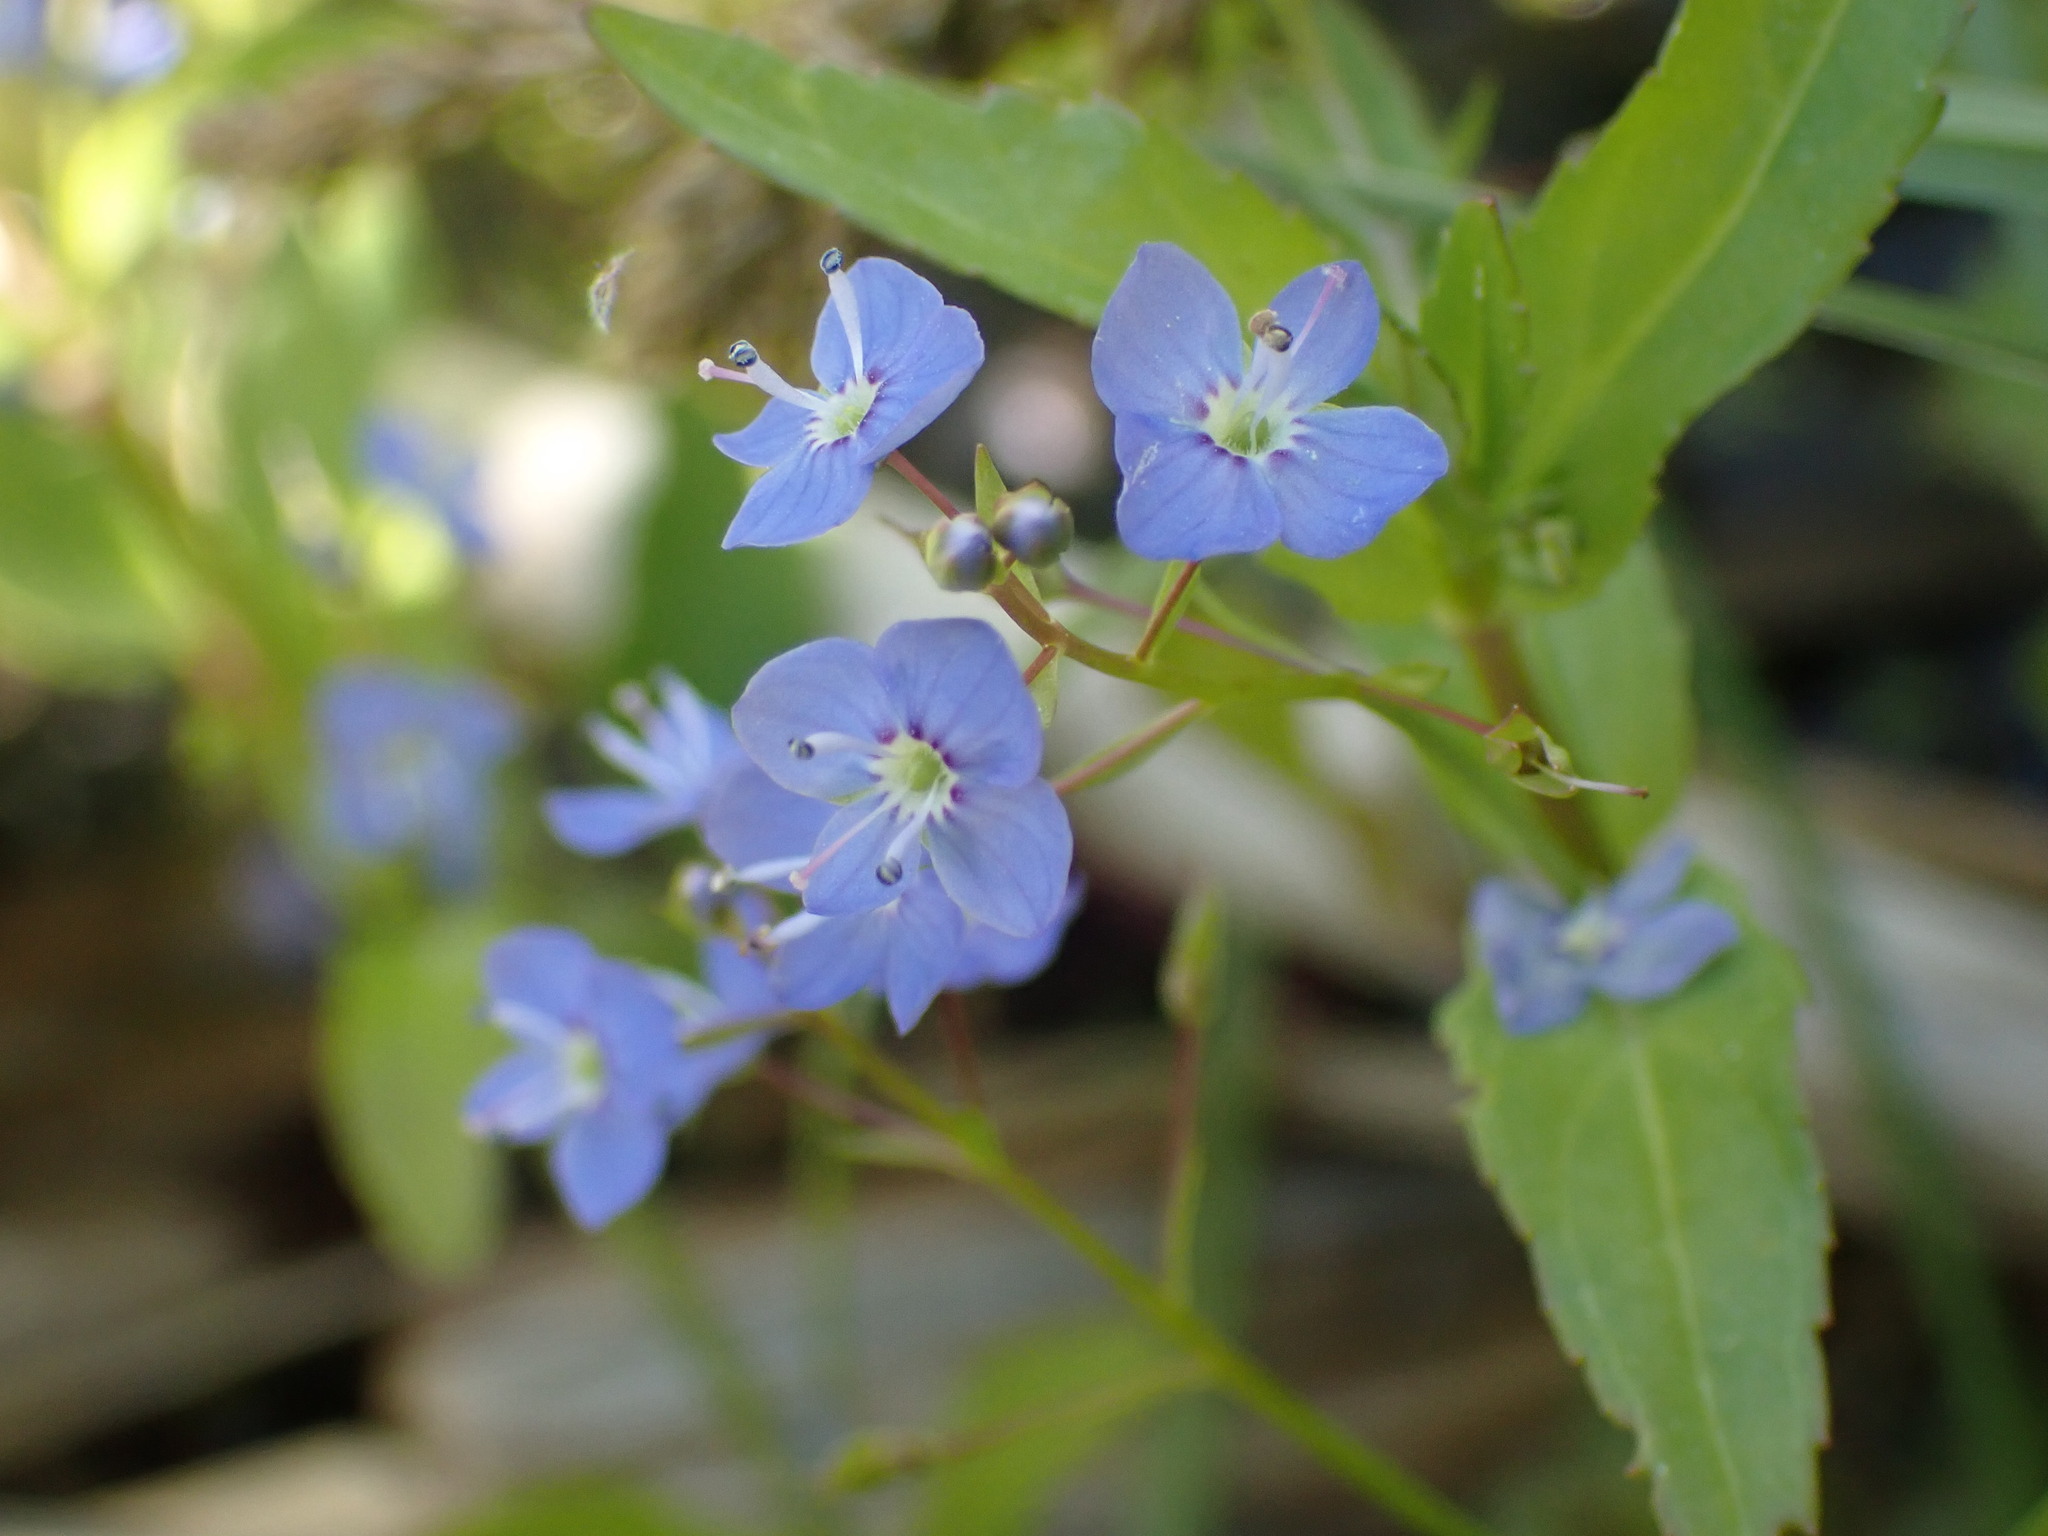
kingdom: Plantae
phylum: Tracheophyta
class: Magnoliopsida
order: Lamiales
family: Plantaginaceae
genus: Veronica
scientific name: Veronica americana
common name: American brooklime
